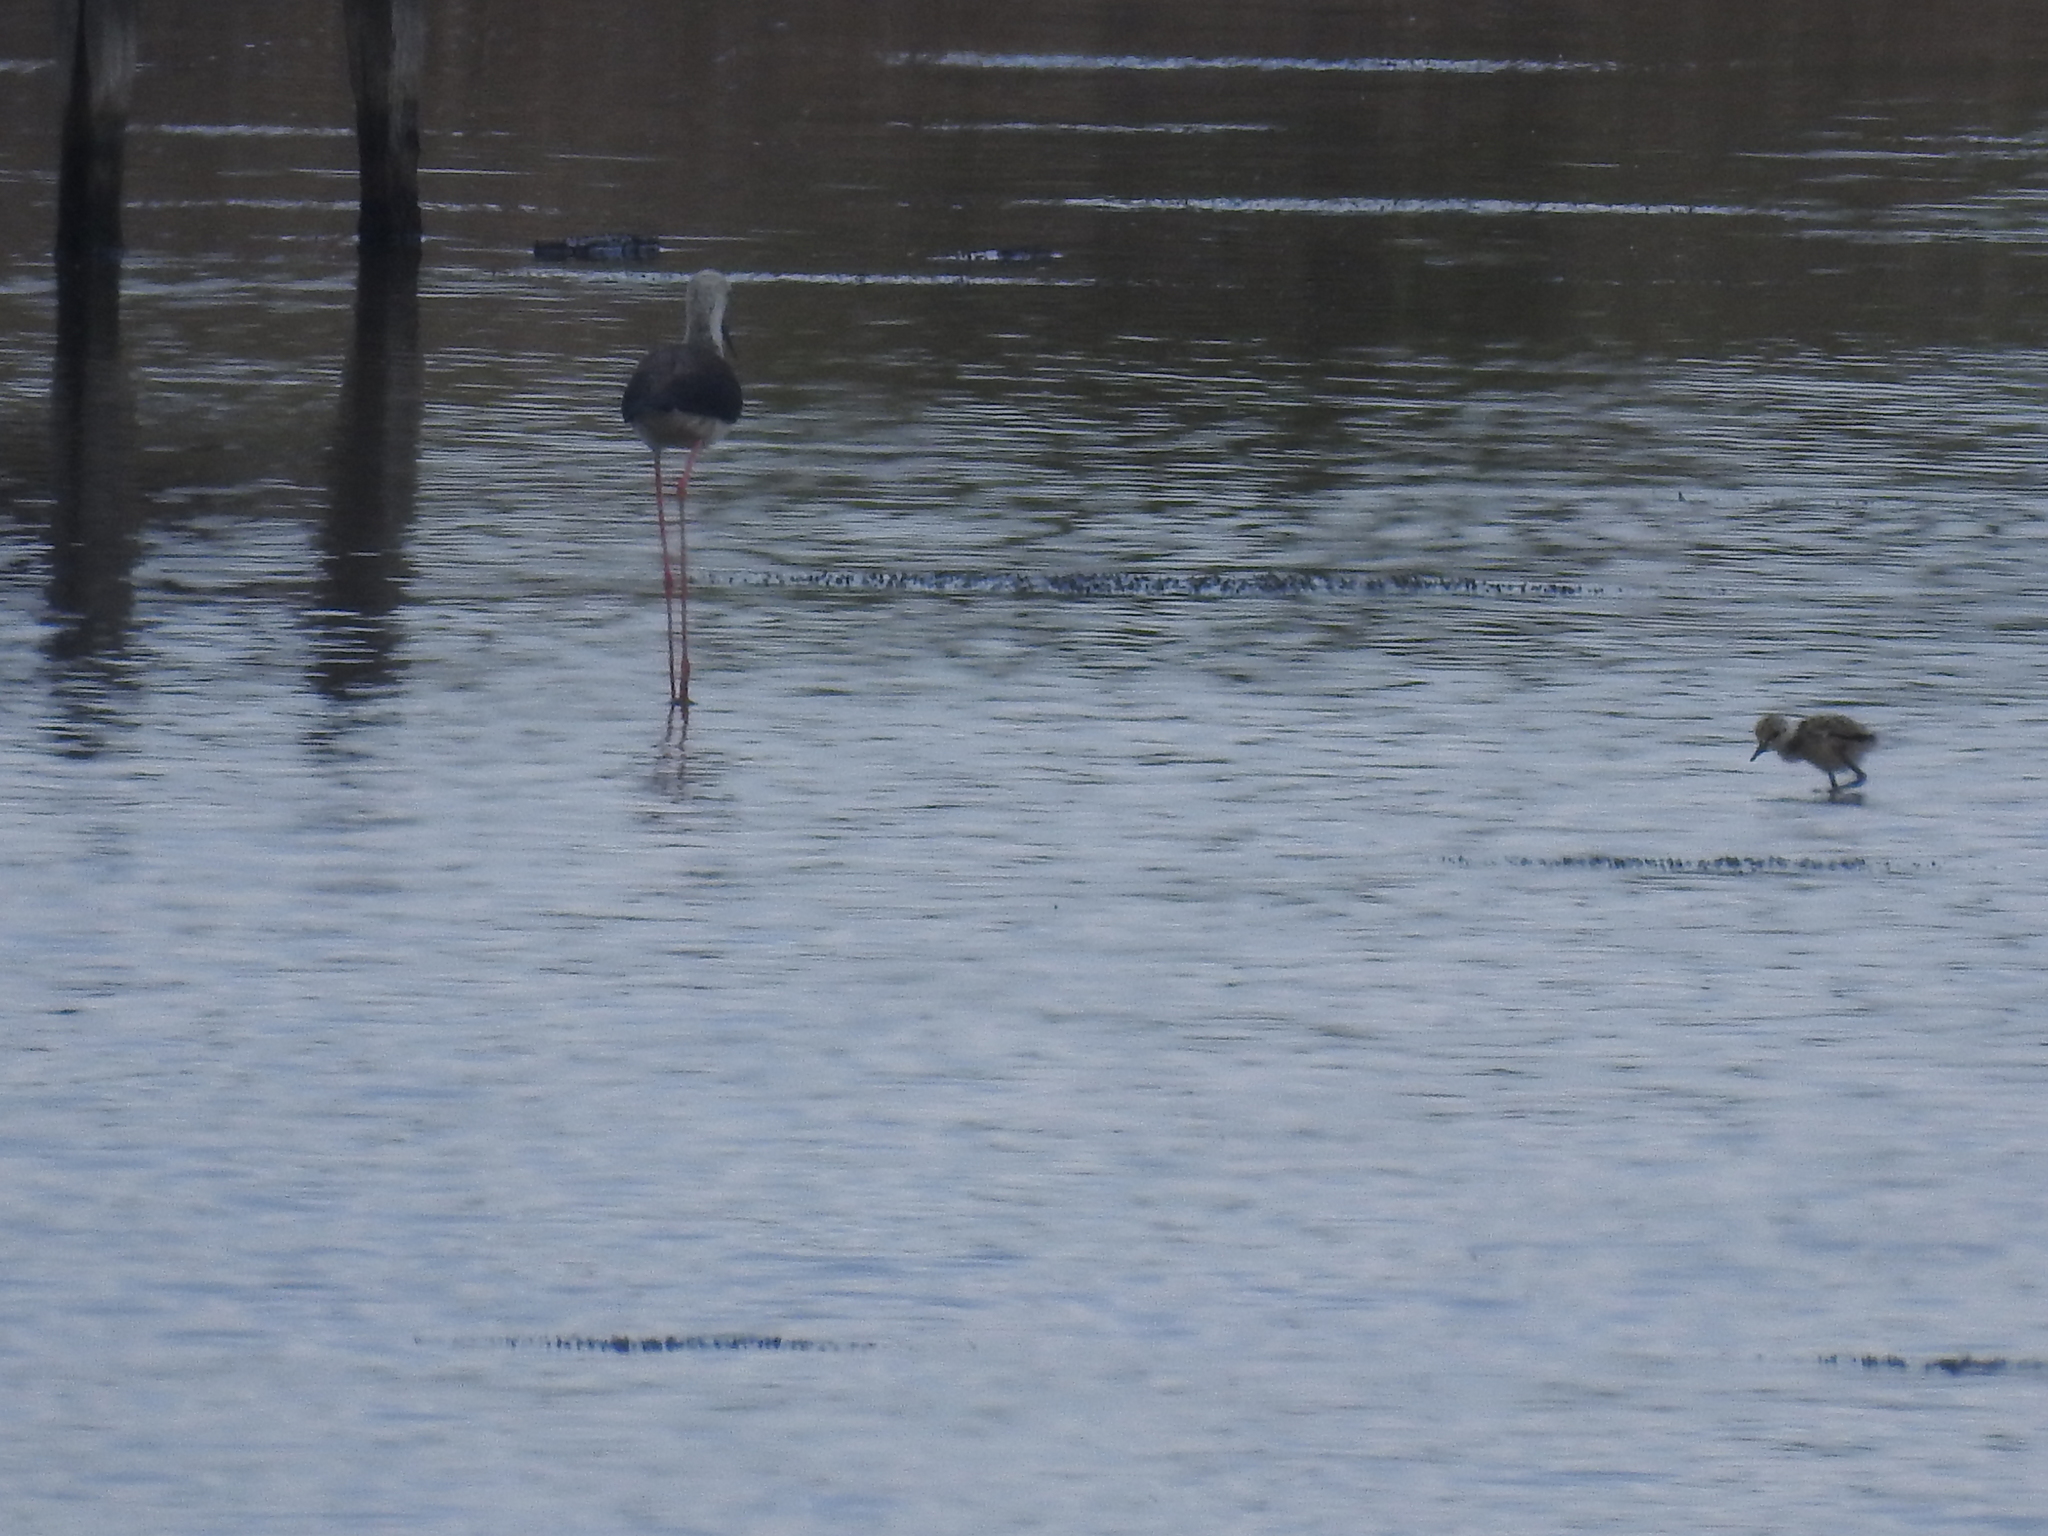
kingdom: Animalia
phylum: Chordata
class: Aves
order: Charadriiformes
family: Recurvirostridae
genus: Himantopus
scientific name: Himantopus himantopus
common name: Black-winged stilt
